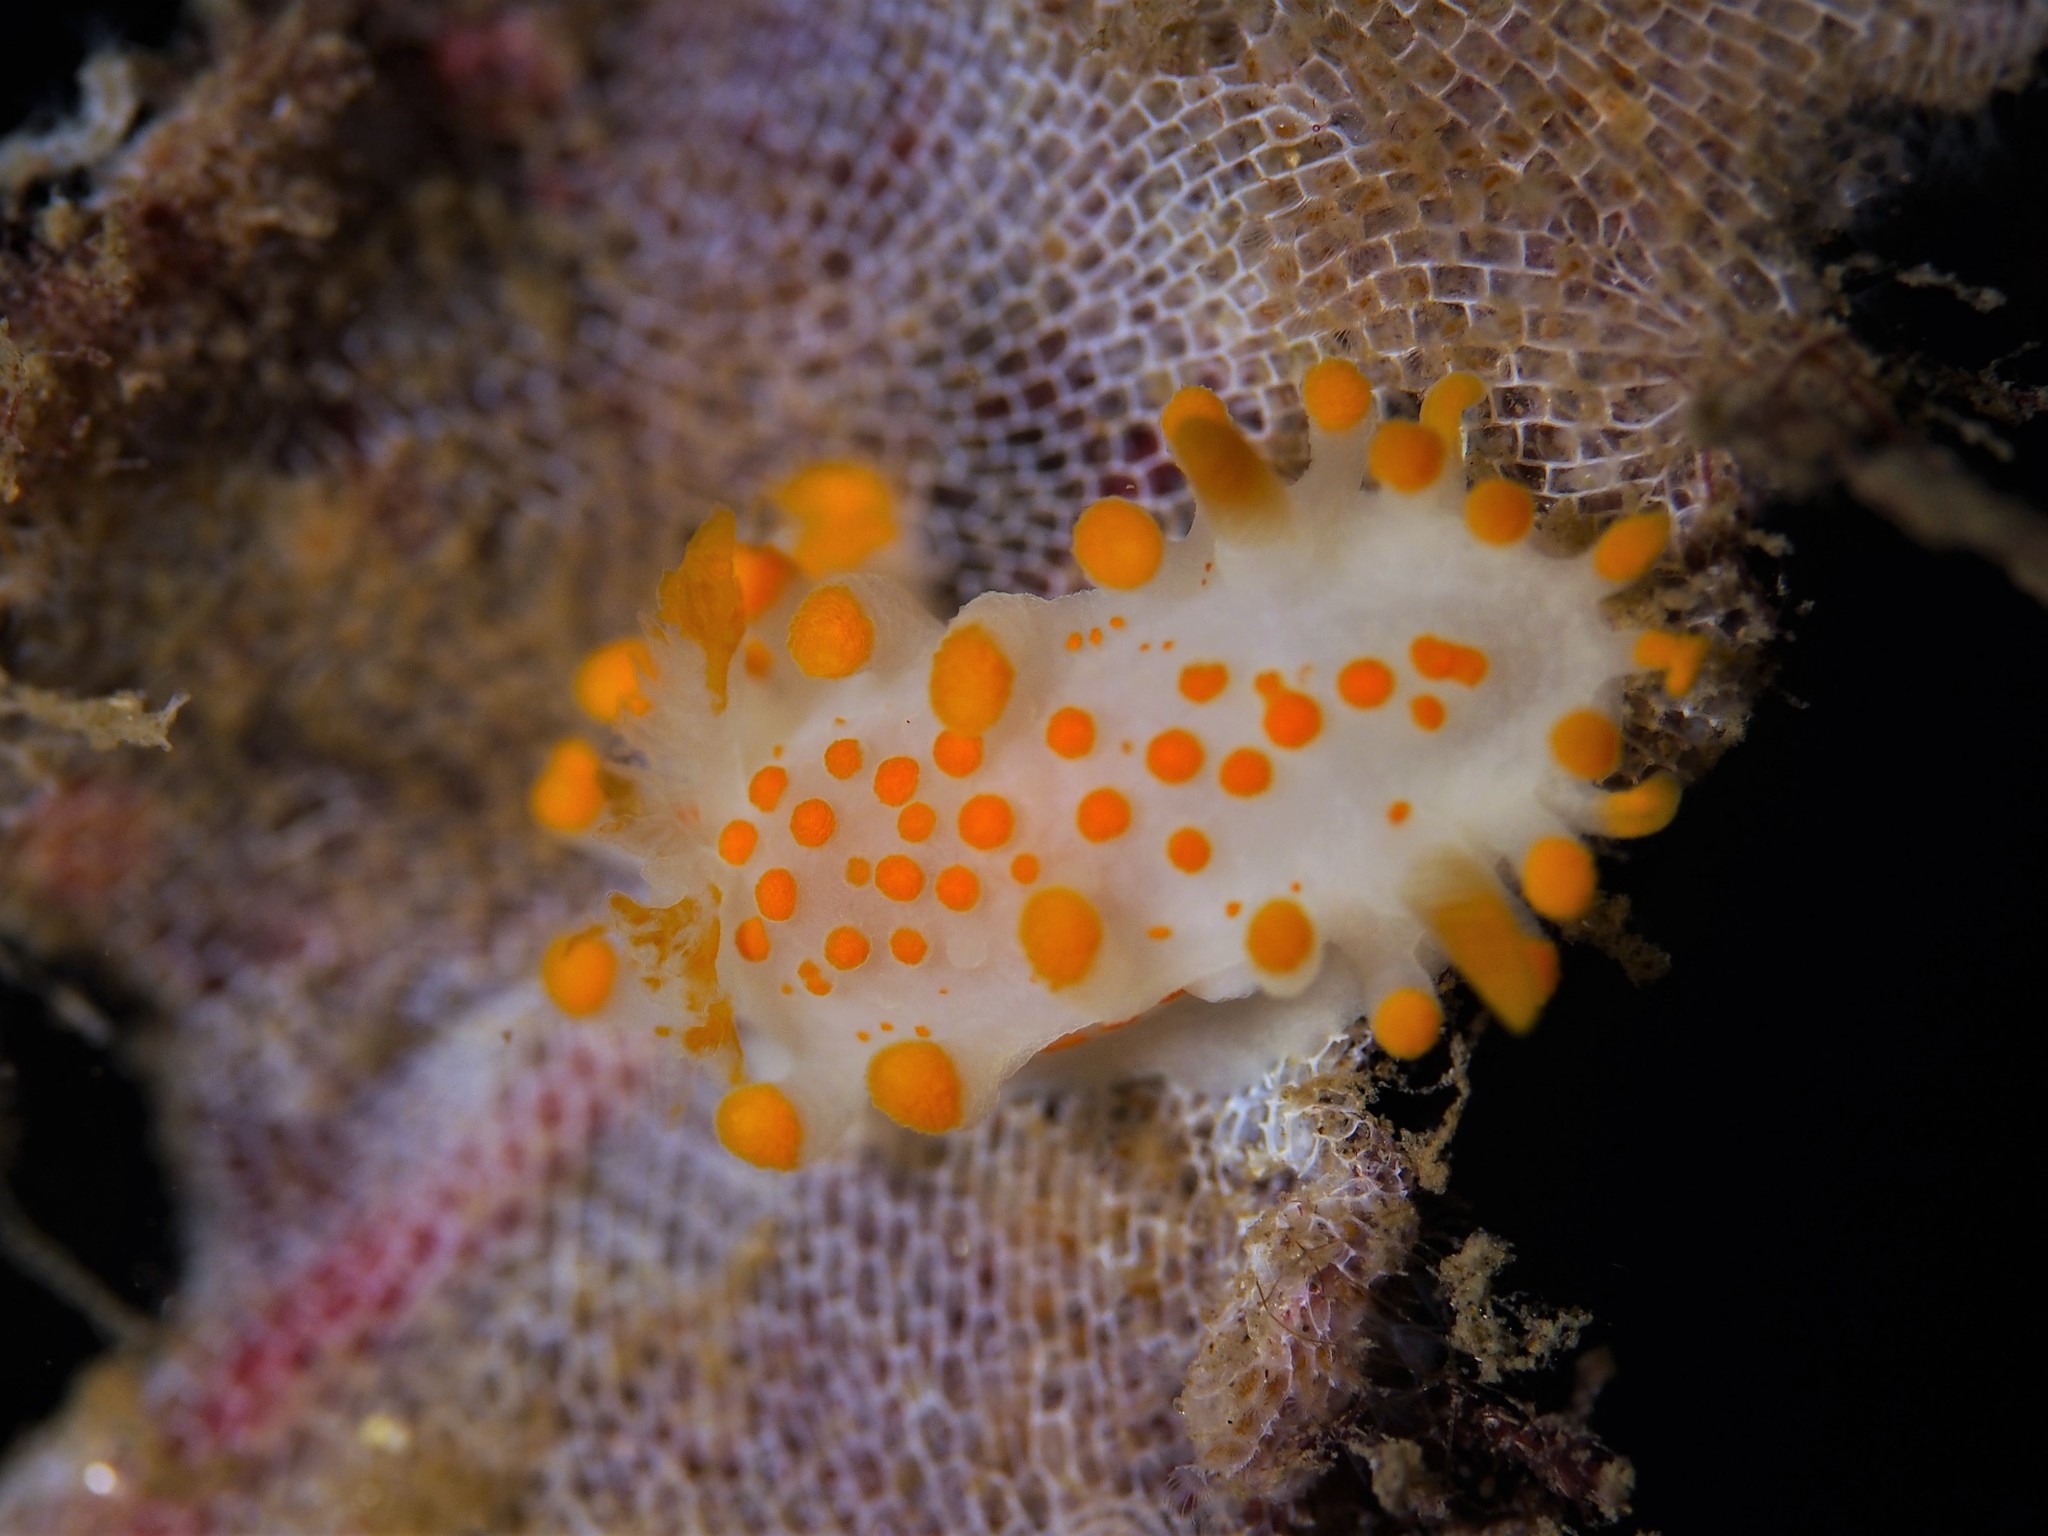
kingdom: Animalia
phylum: Mollusca
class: Gastropoda
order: Nudibranchia
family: Polyceridae
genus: Limacia
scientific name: Limacia clavigera
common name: Orange-clubbed sea slug
